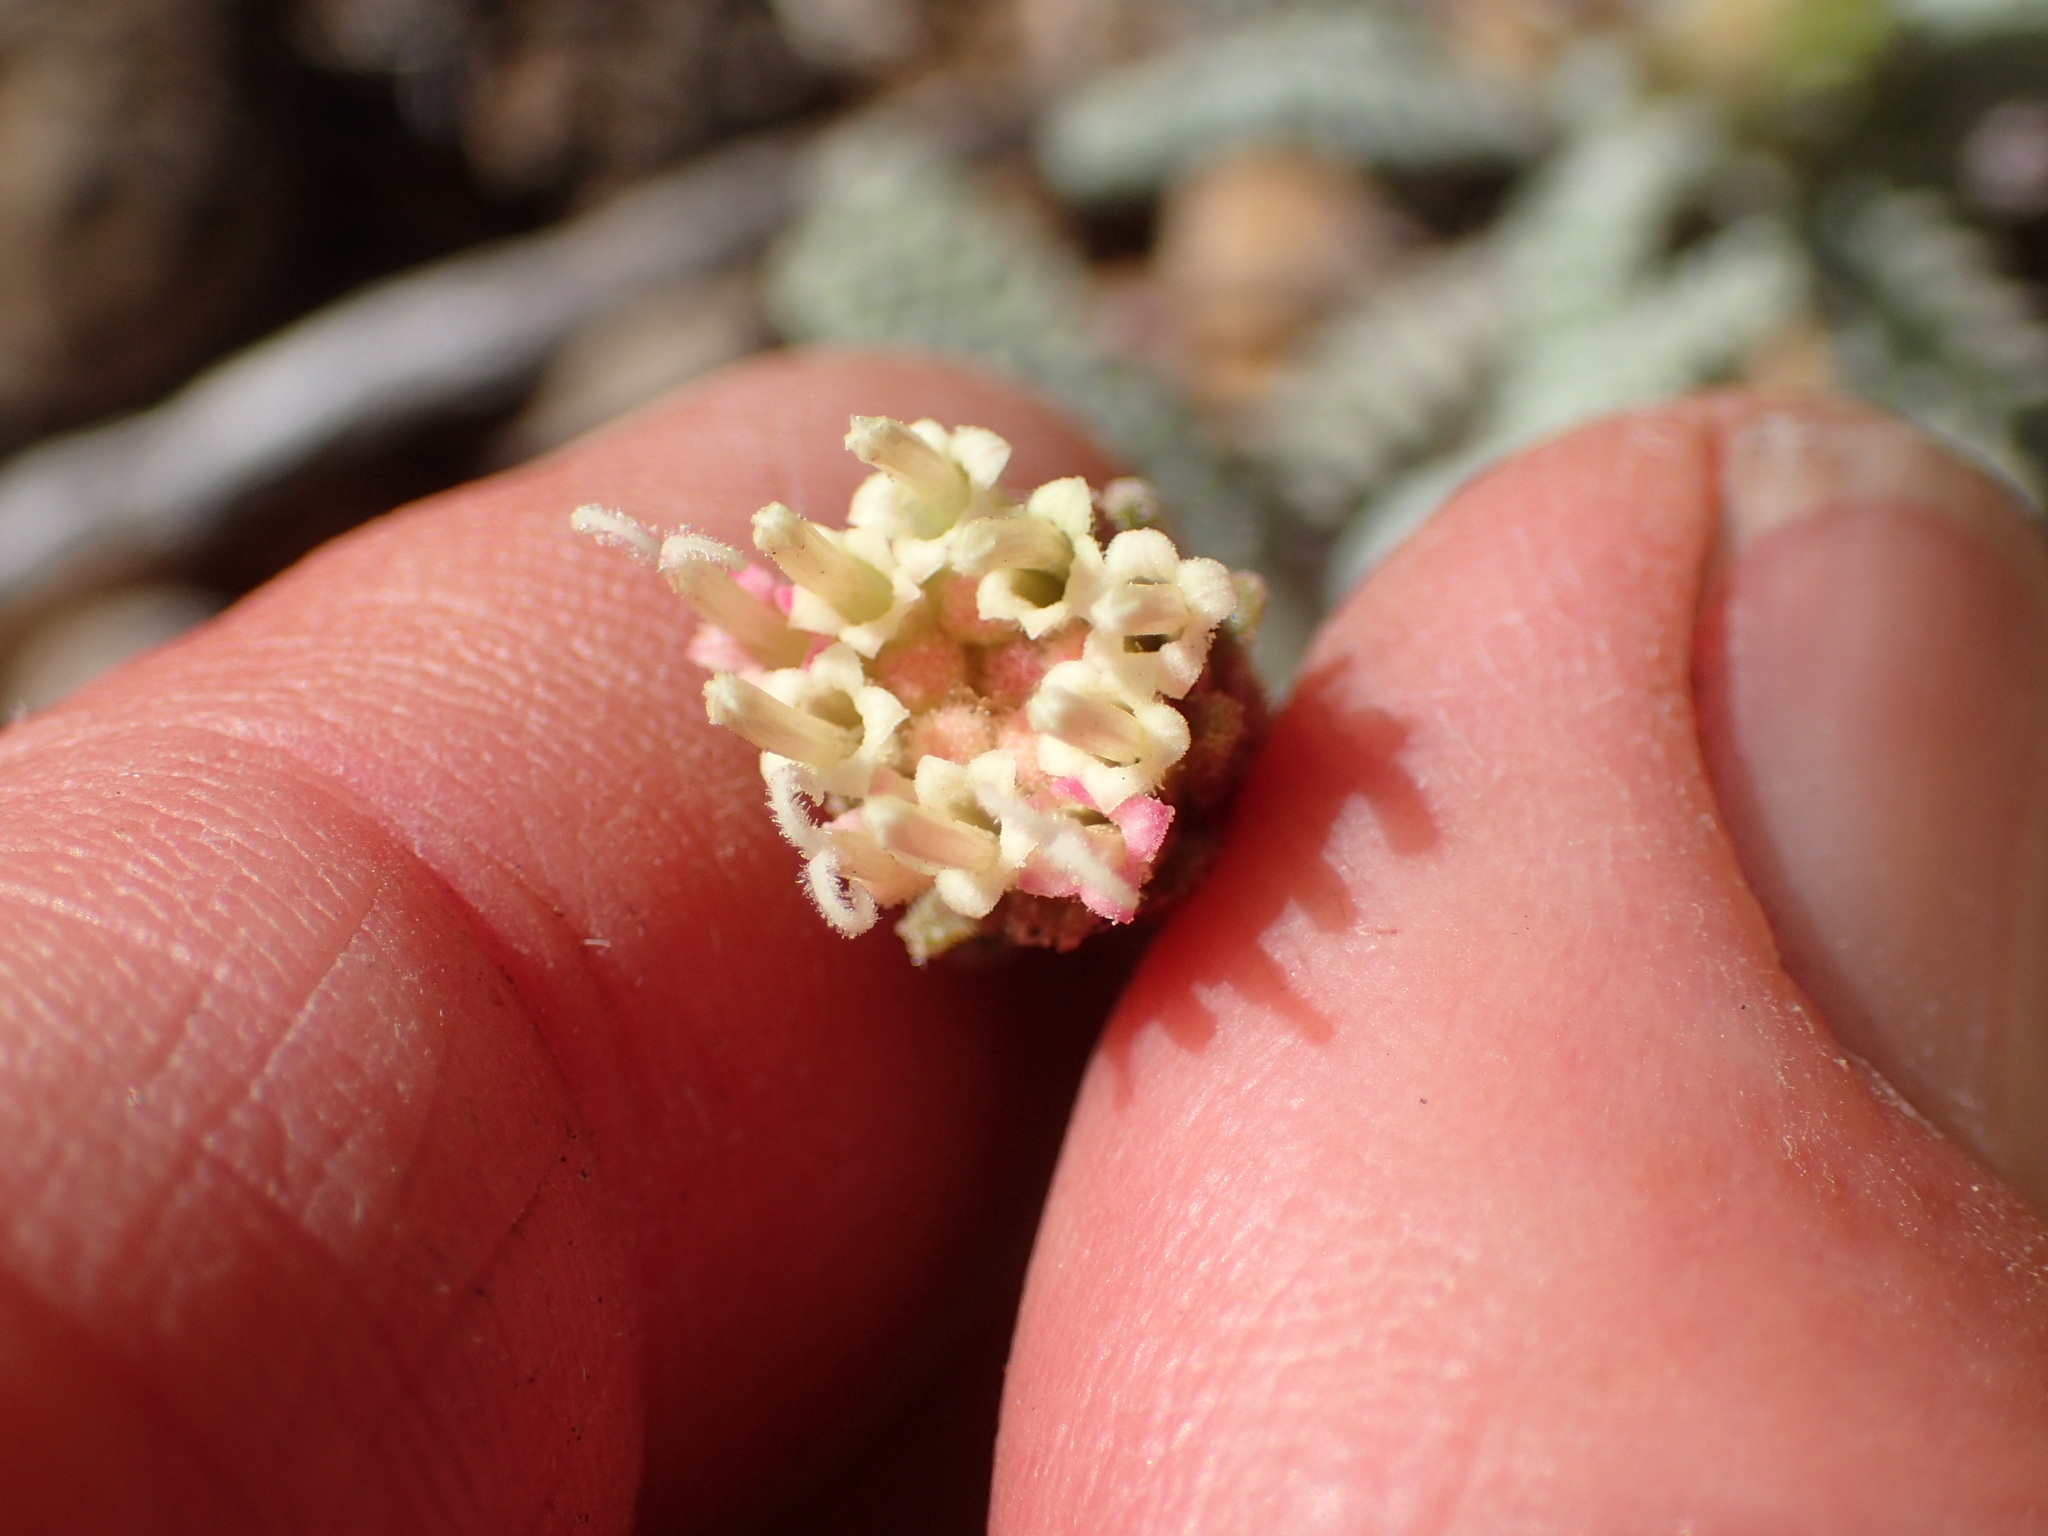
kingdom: Plantae
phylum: Tracheophyta
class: Magnoliopsida
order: Asterales
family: Asteraceae
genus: Chaenactis
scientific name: Chaenactis santolinoides
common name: Santolina pincushion
